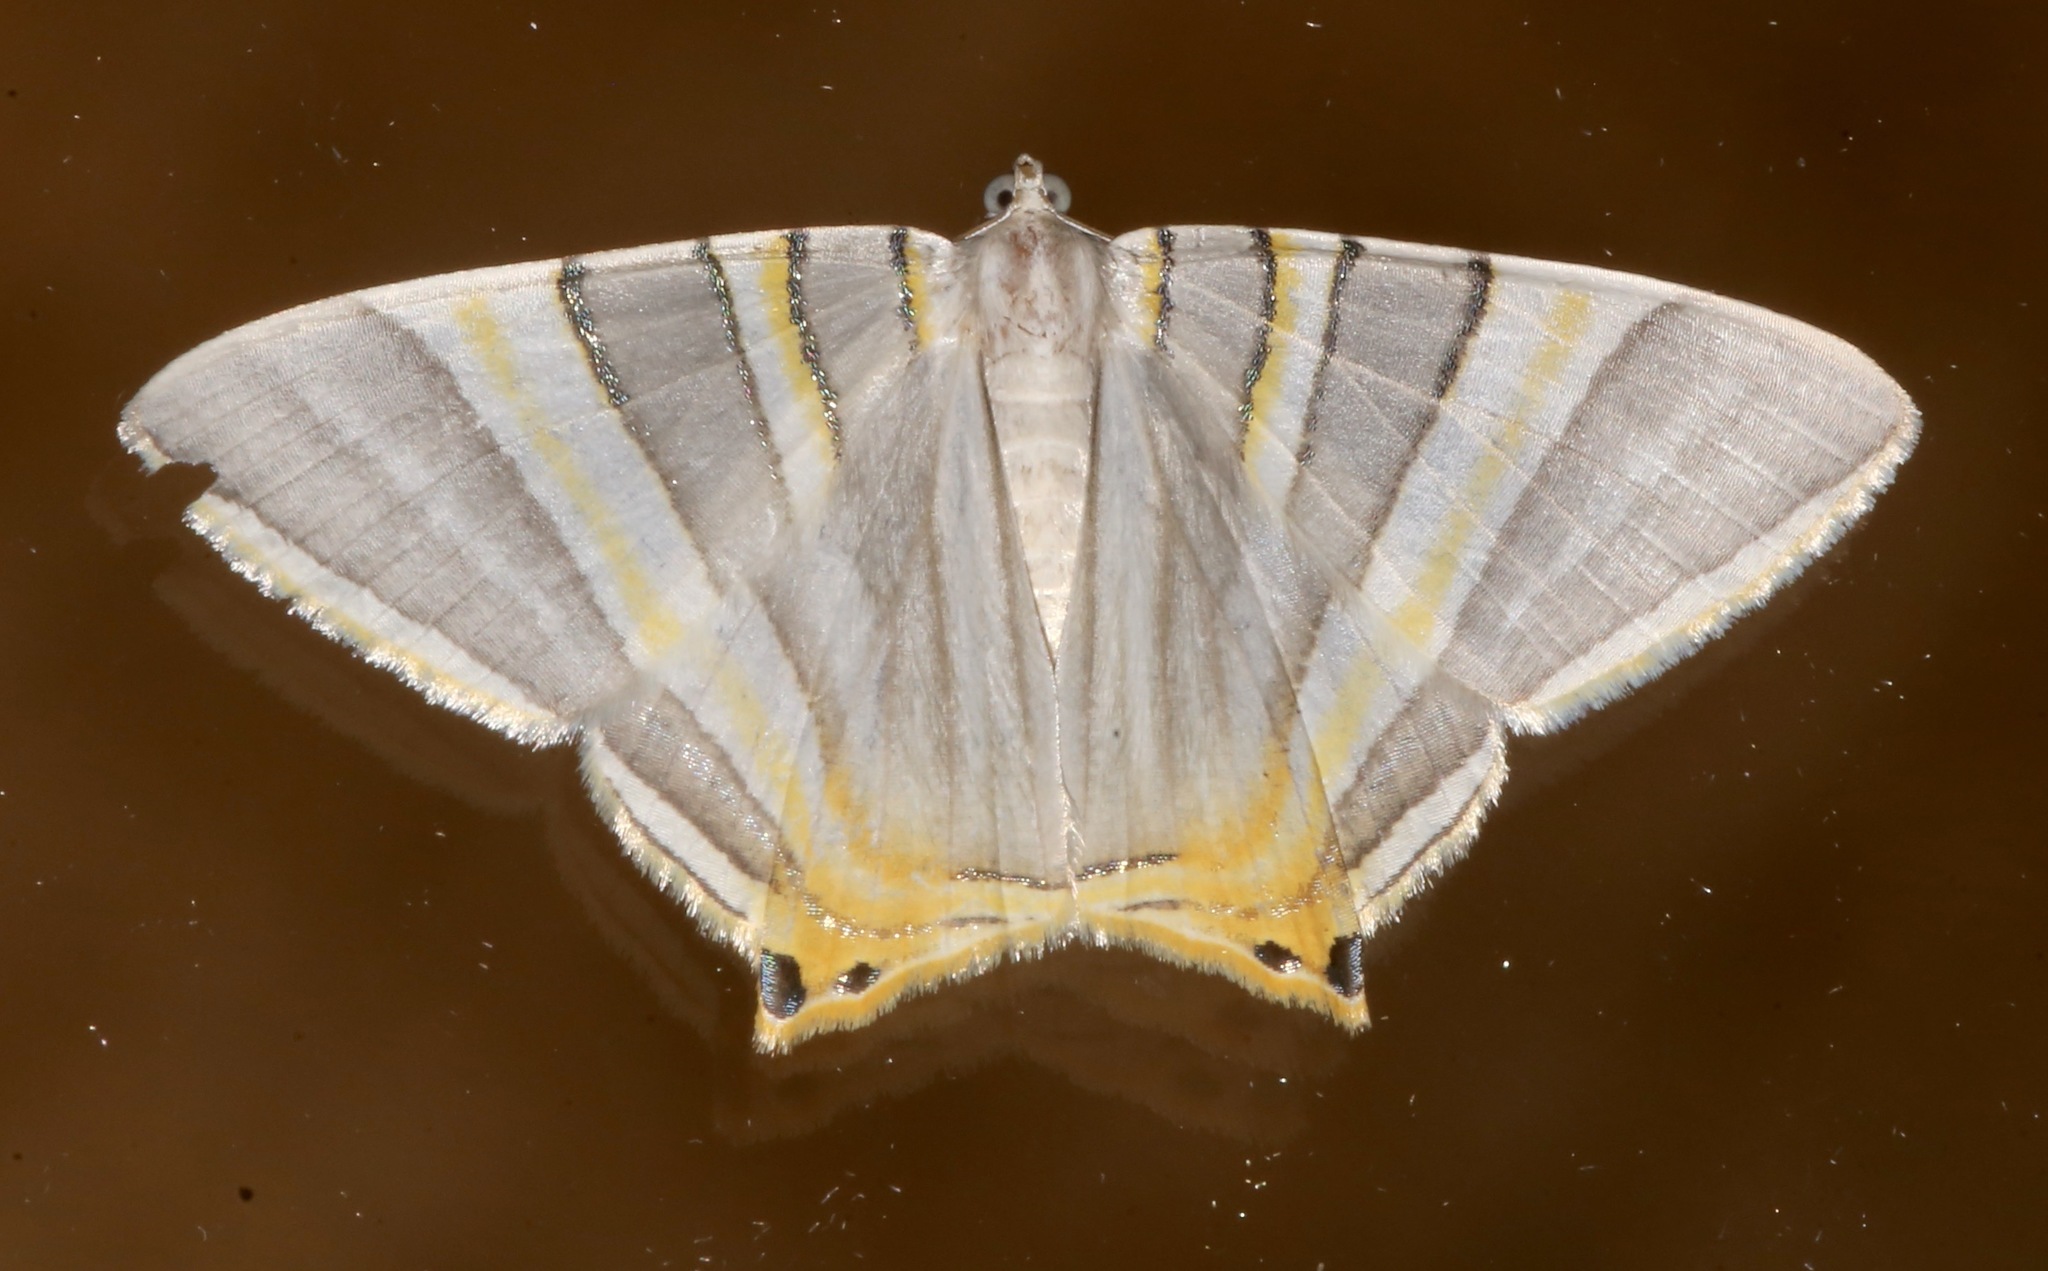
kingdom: Animalia
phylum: Arthropoda
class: Insecta
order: Lepidoptera
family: Geometridae
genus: Phrygionis
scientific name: Phrygionis platinata
